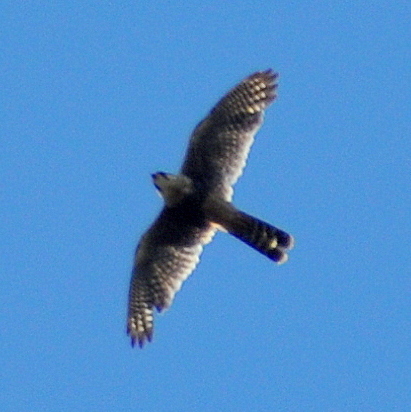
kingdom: Animalia
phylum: Chordata
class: Aves
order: Falconiformes
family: Falconidae
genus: Falco
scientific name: Falco femoralis
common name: Aplomado falcon
